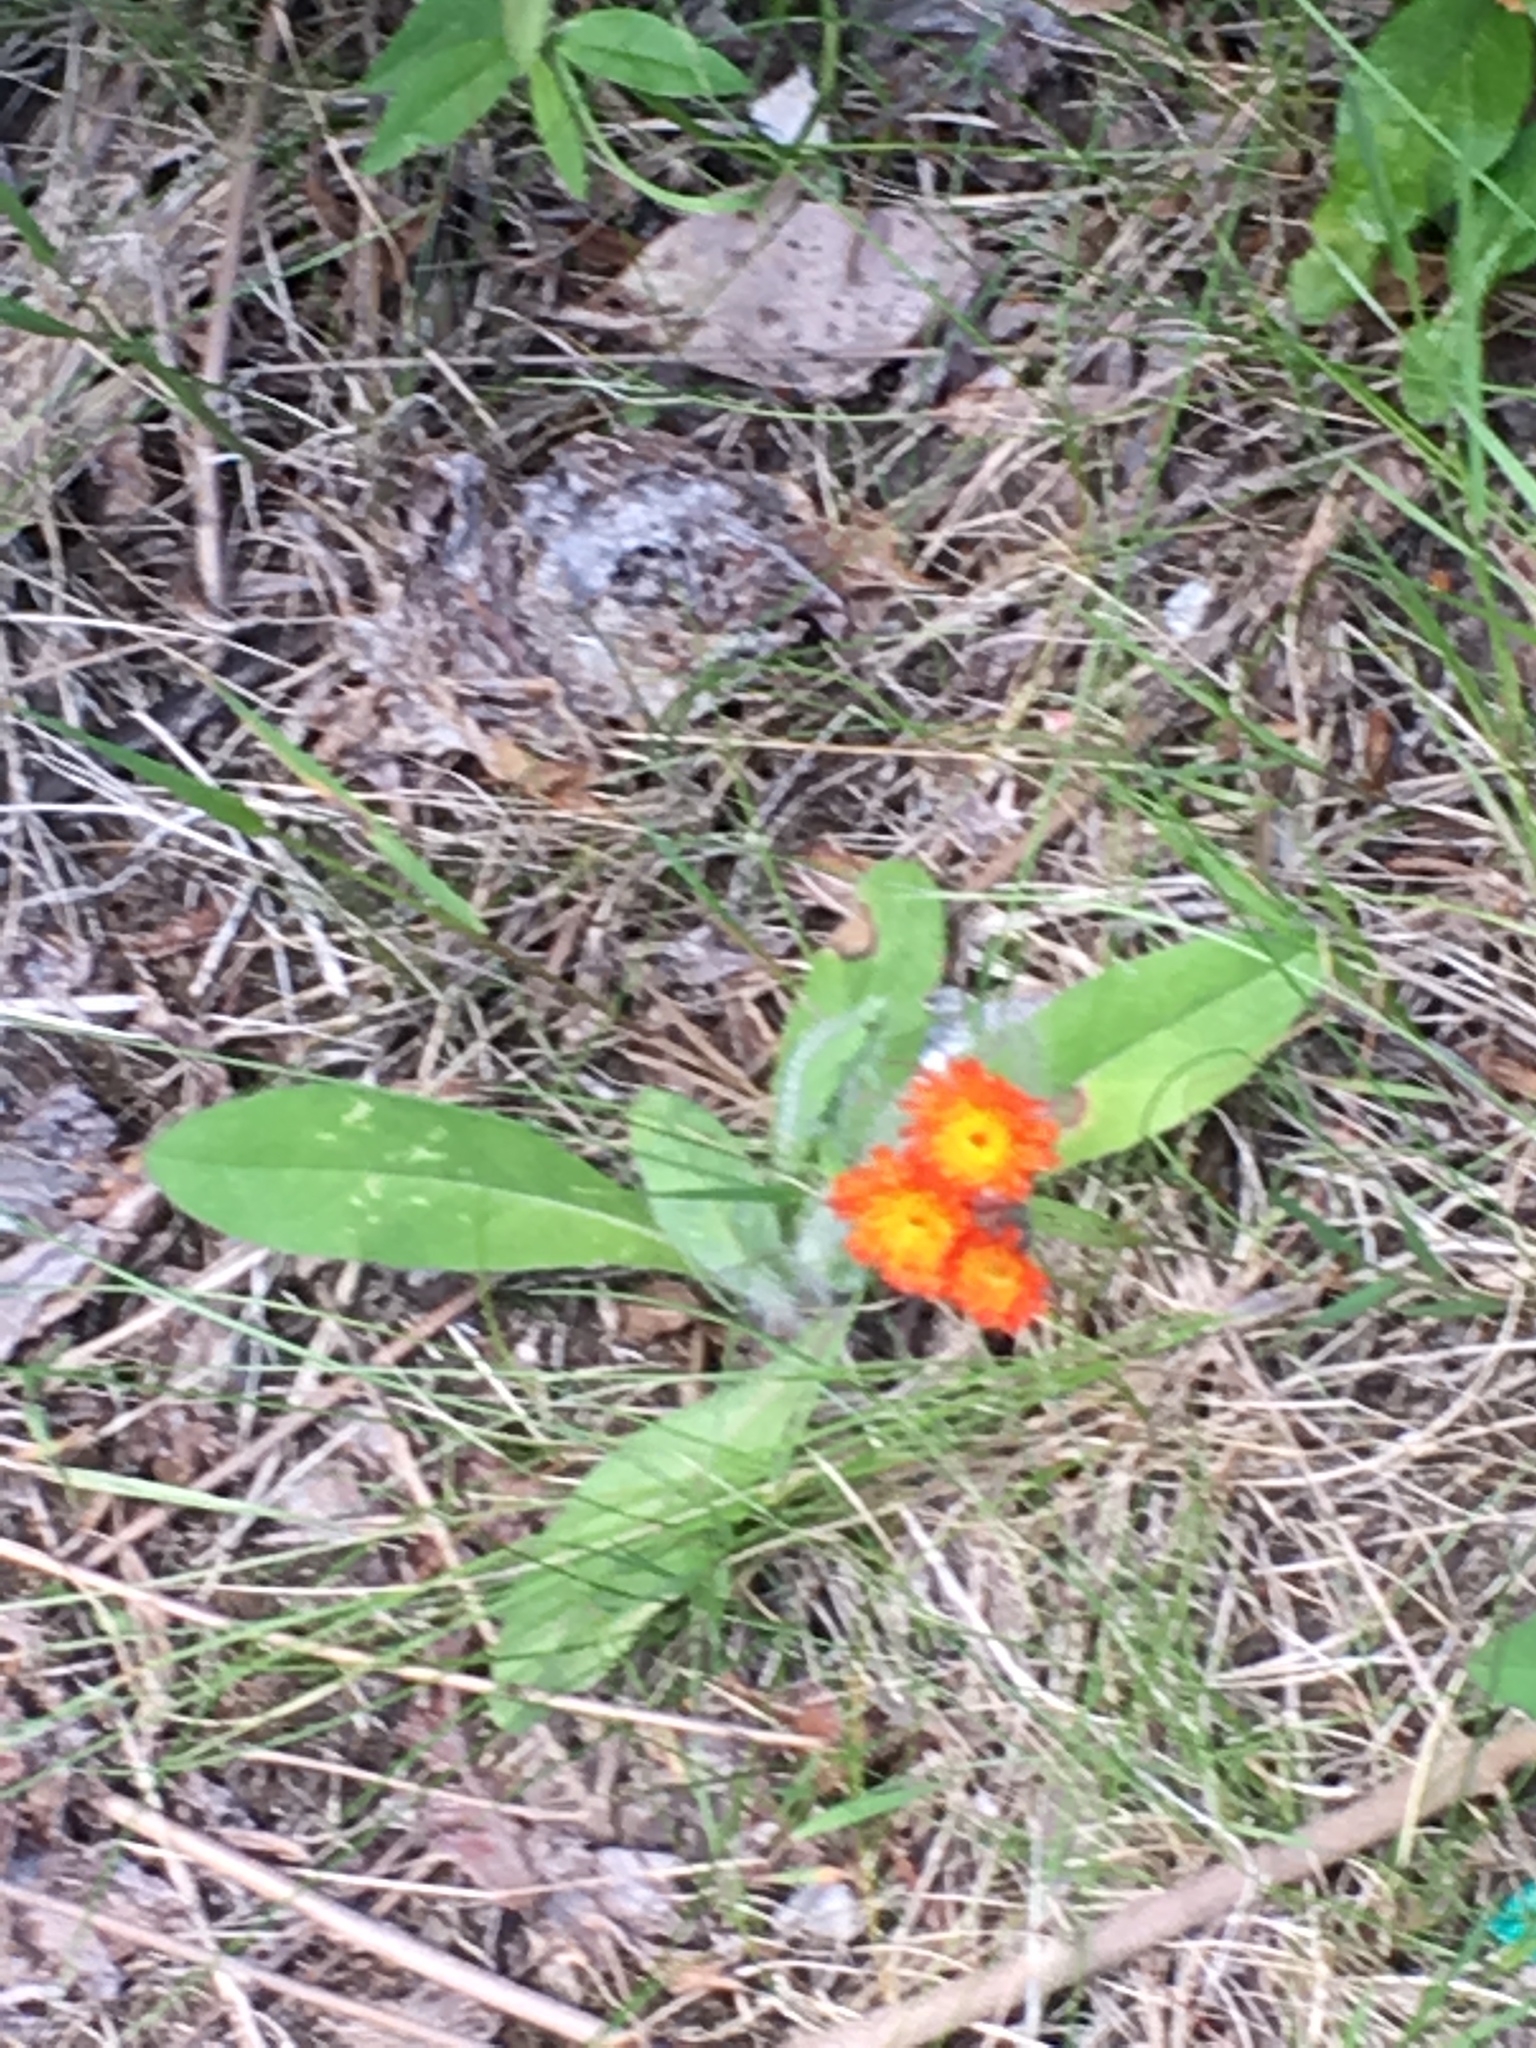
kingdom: Plantae
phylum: Tracheophyta
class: Magnoliopsida
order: Asterales
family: Asteraceae
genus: Pilosella
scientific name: Pilosella aurantiaca
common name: Fox-and-cubs
